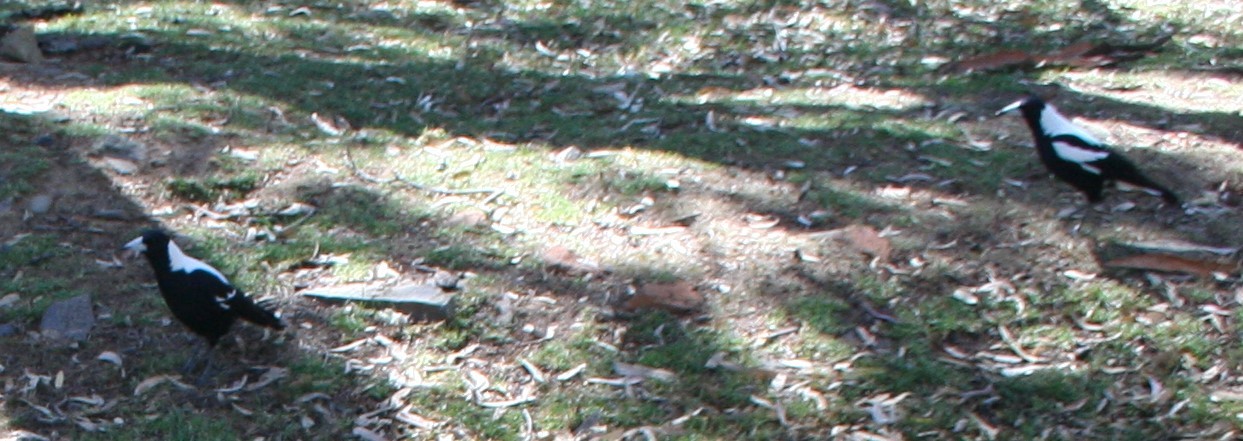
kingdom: Animalia
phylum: Chordata
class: Aves
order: Passeriformes
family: Cracticidae
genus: Gymnorhina
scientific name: Gymnorhina tibicen
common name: Australian magpie
